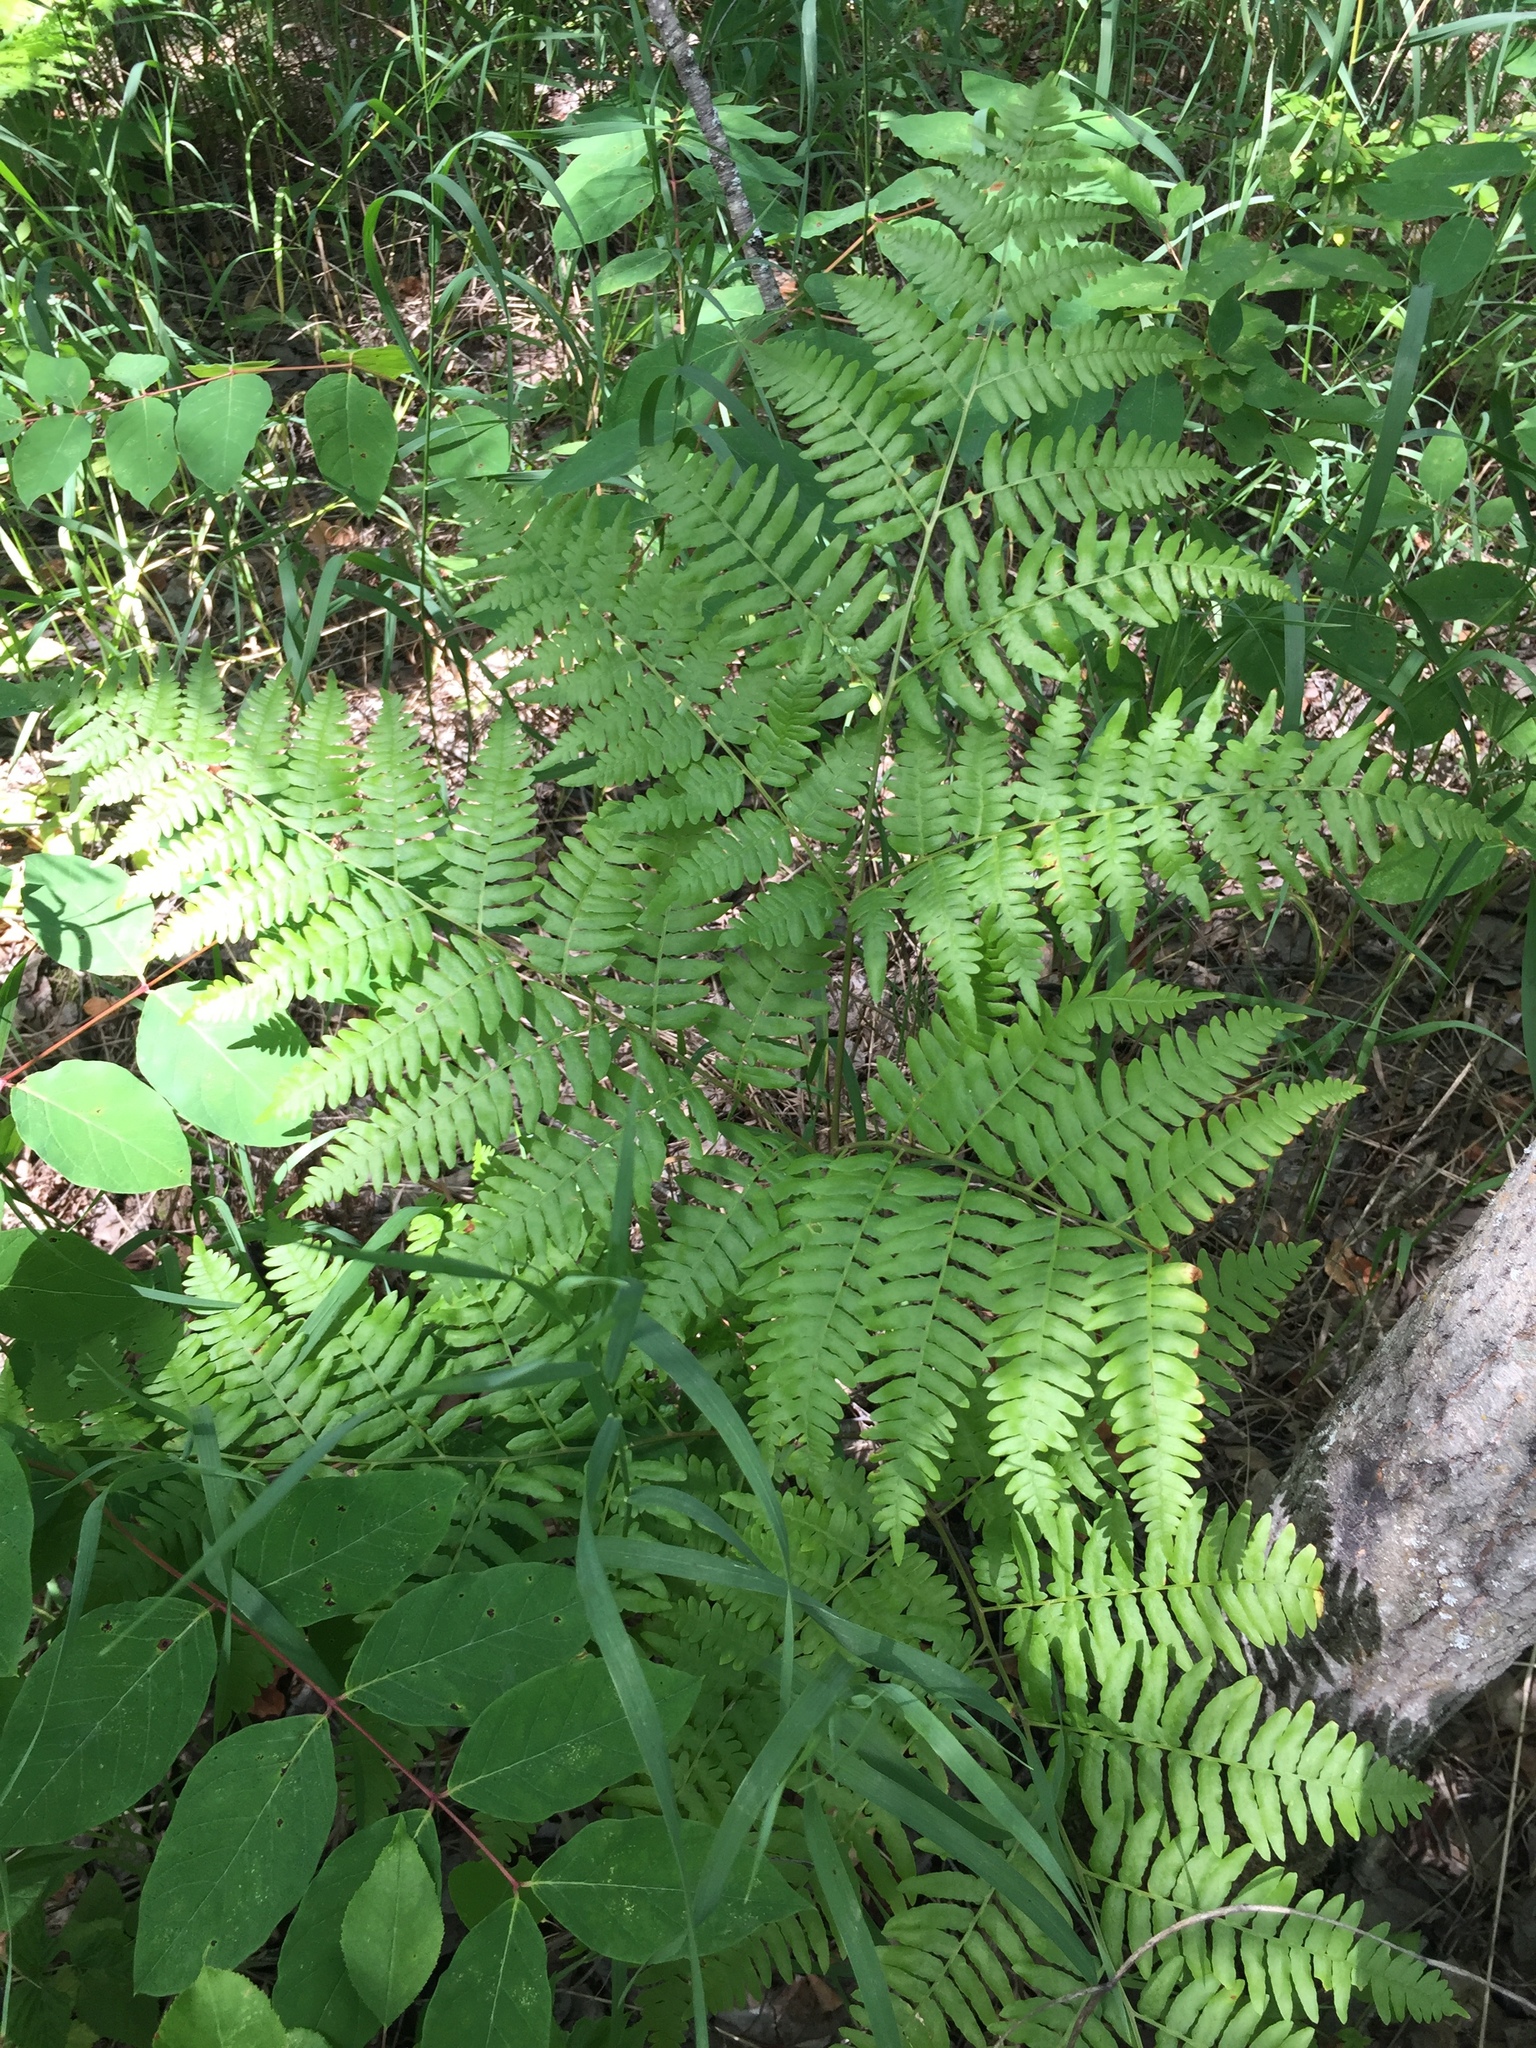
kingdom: Plantae
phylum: Tracheophyta
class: Polypodiopsida
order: Polypodiales
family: Dennstaedtiaceae
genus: Pteridium
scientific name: Pteridium aquilinum
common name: Bracken
